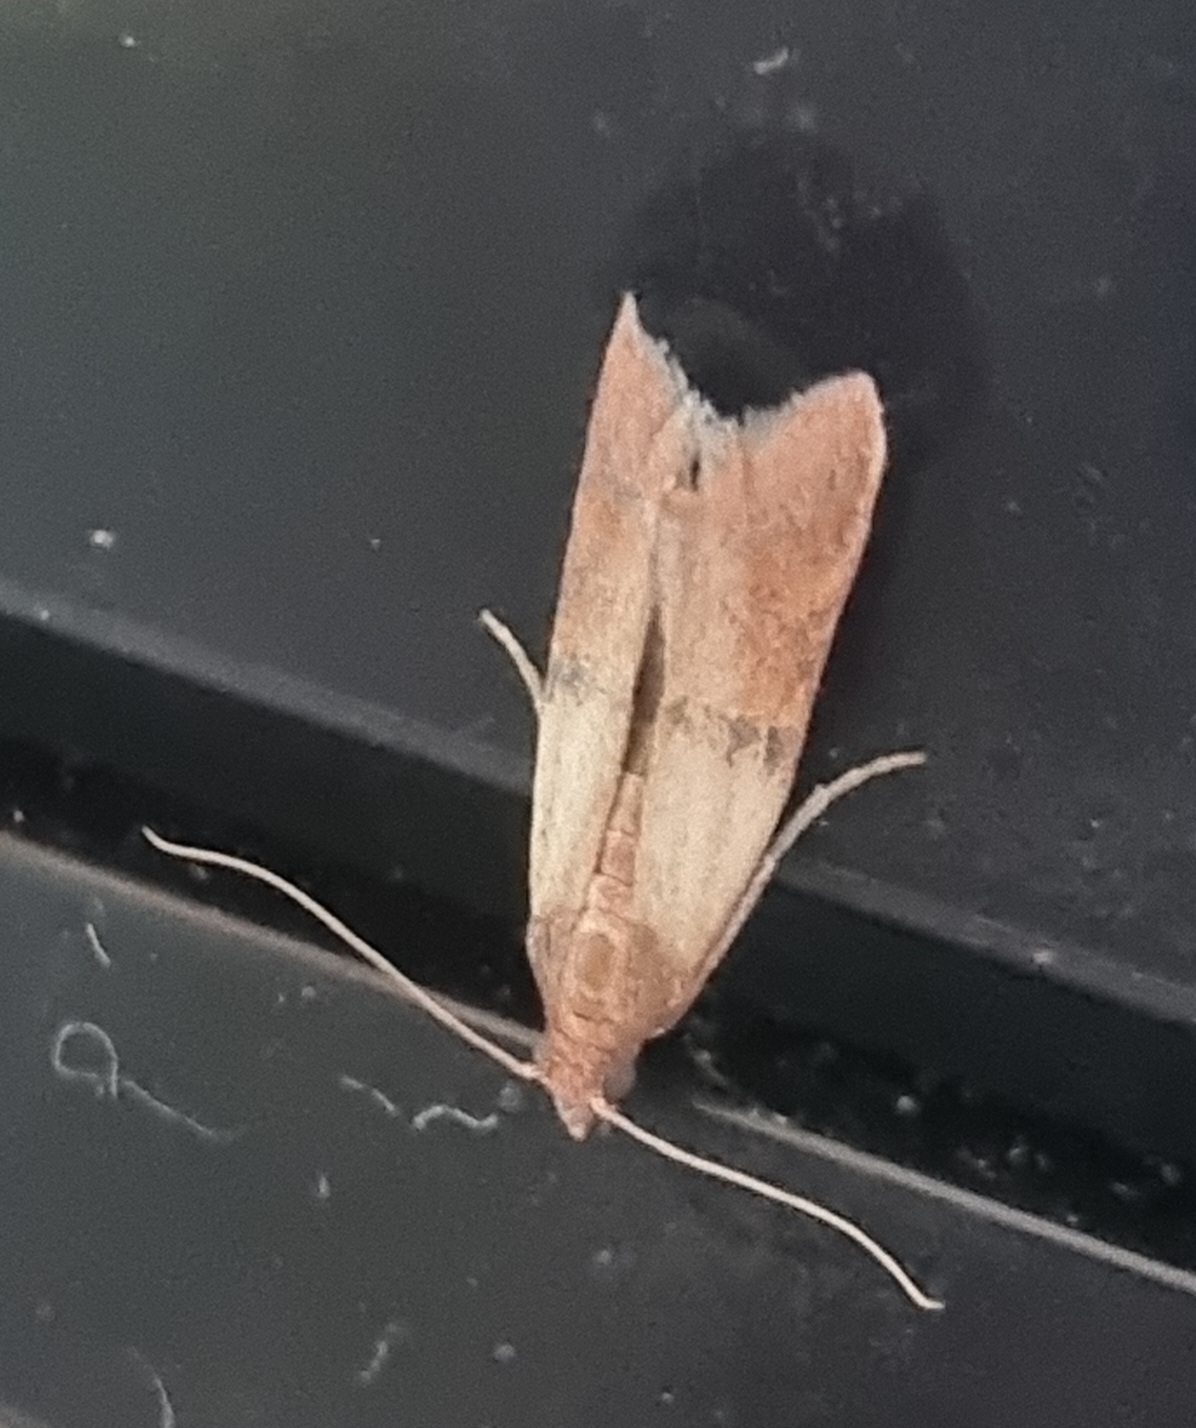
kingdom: Animalia
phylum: Arthropoda
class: Insecta
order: Lepidoptera
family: Pyralidae
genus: Plodia
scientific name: Plodia interpunctella
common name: Indian meal moth
